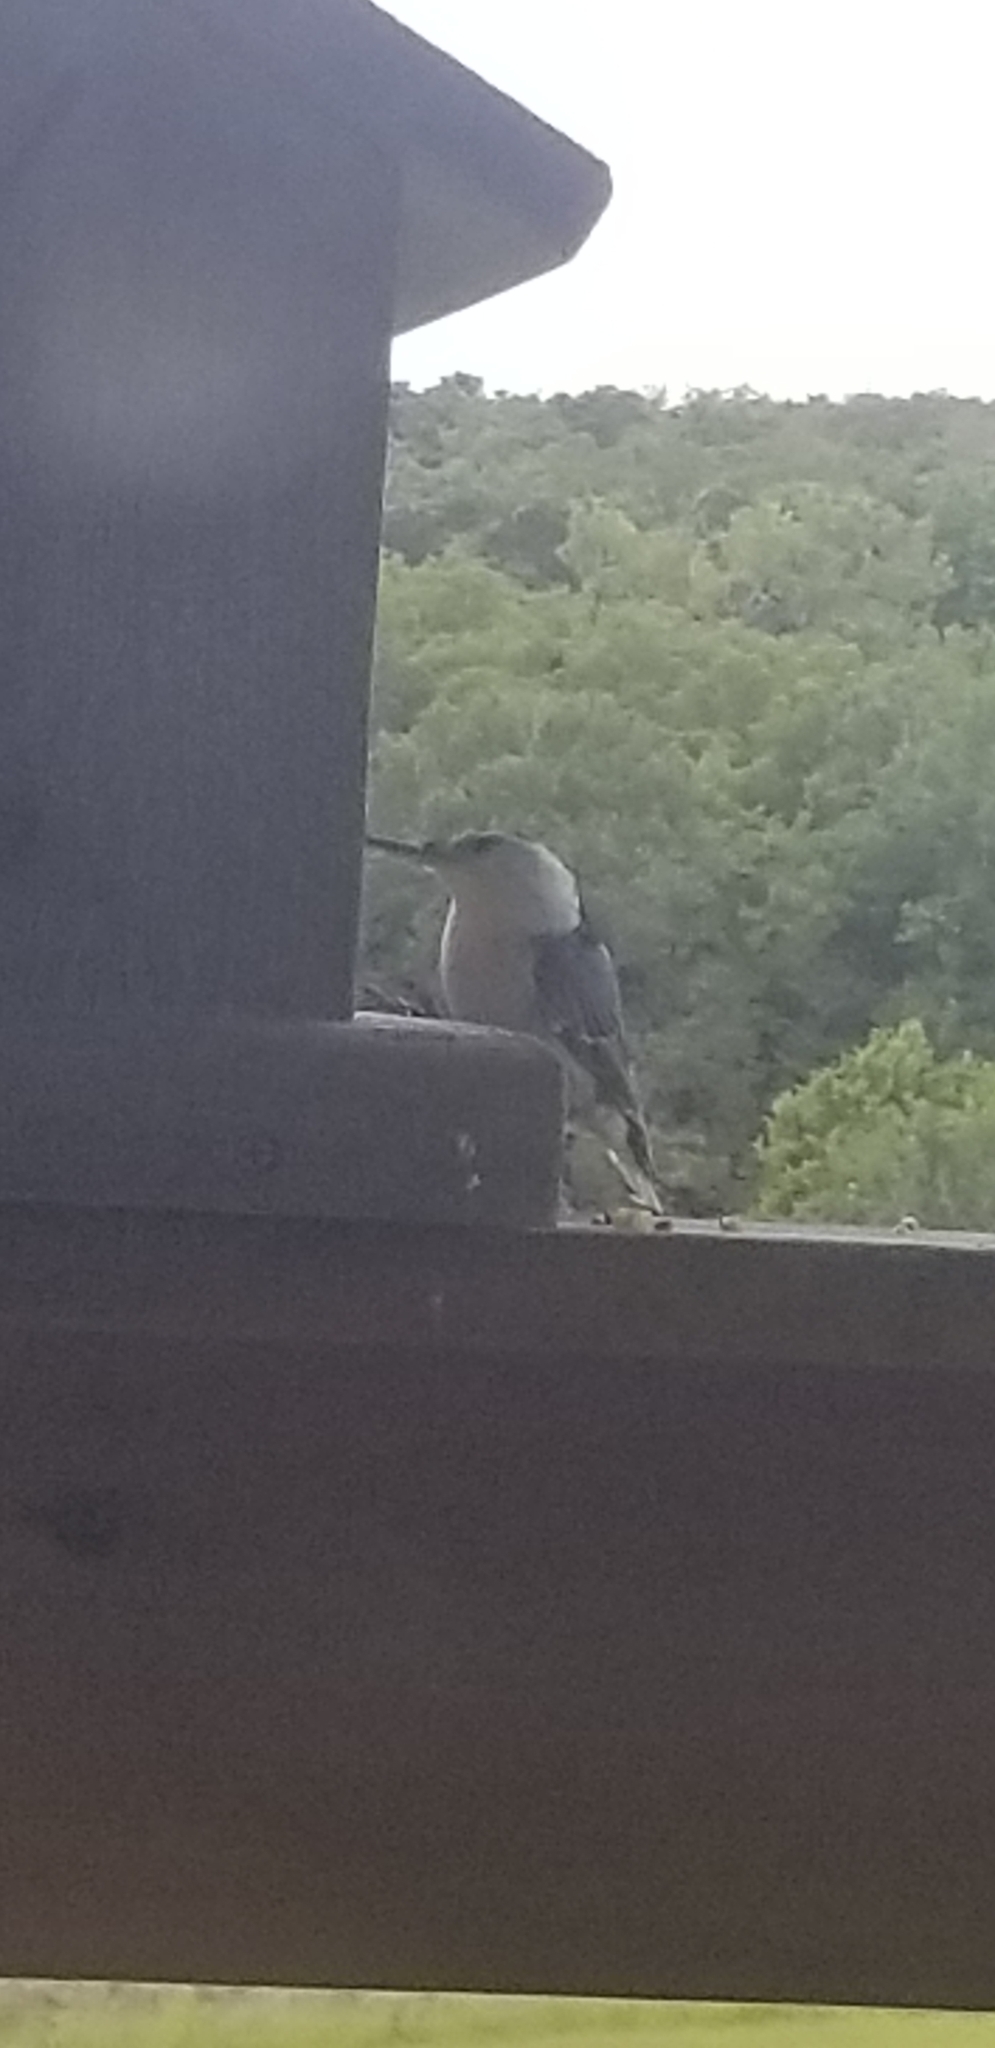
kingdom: Animalia
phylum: Chordata
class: Aves
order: Passeriformes
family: Sittidae
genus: Sitta
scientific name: Sitta carolinensis
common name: White-breasted nuthatch
